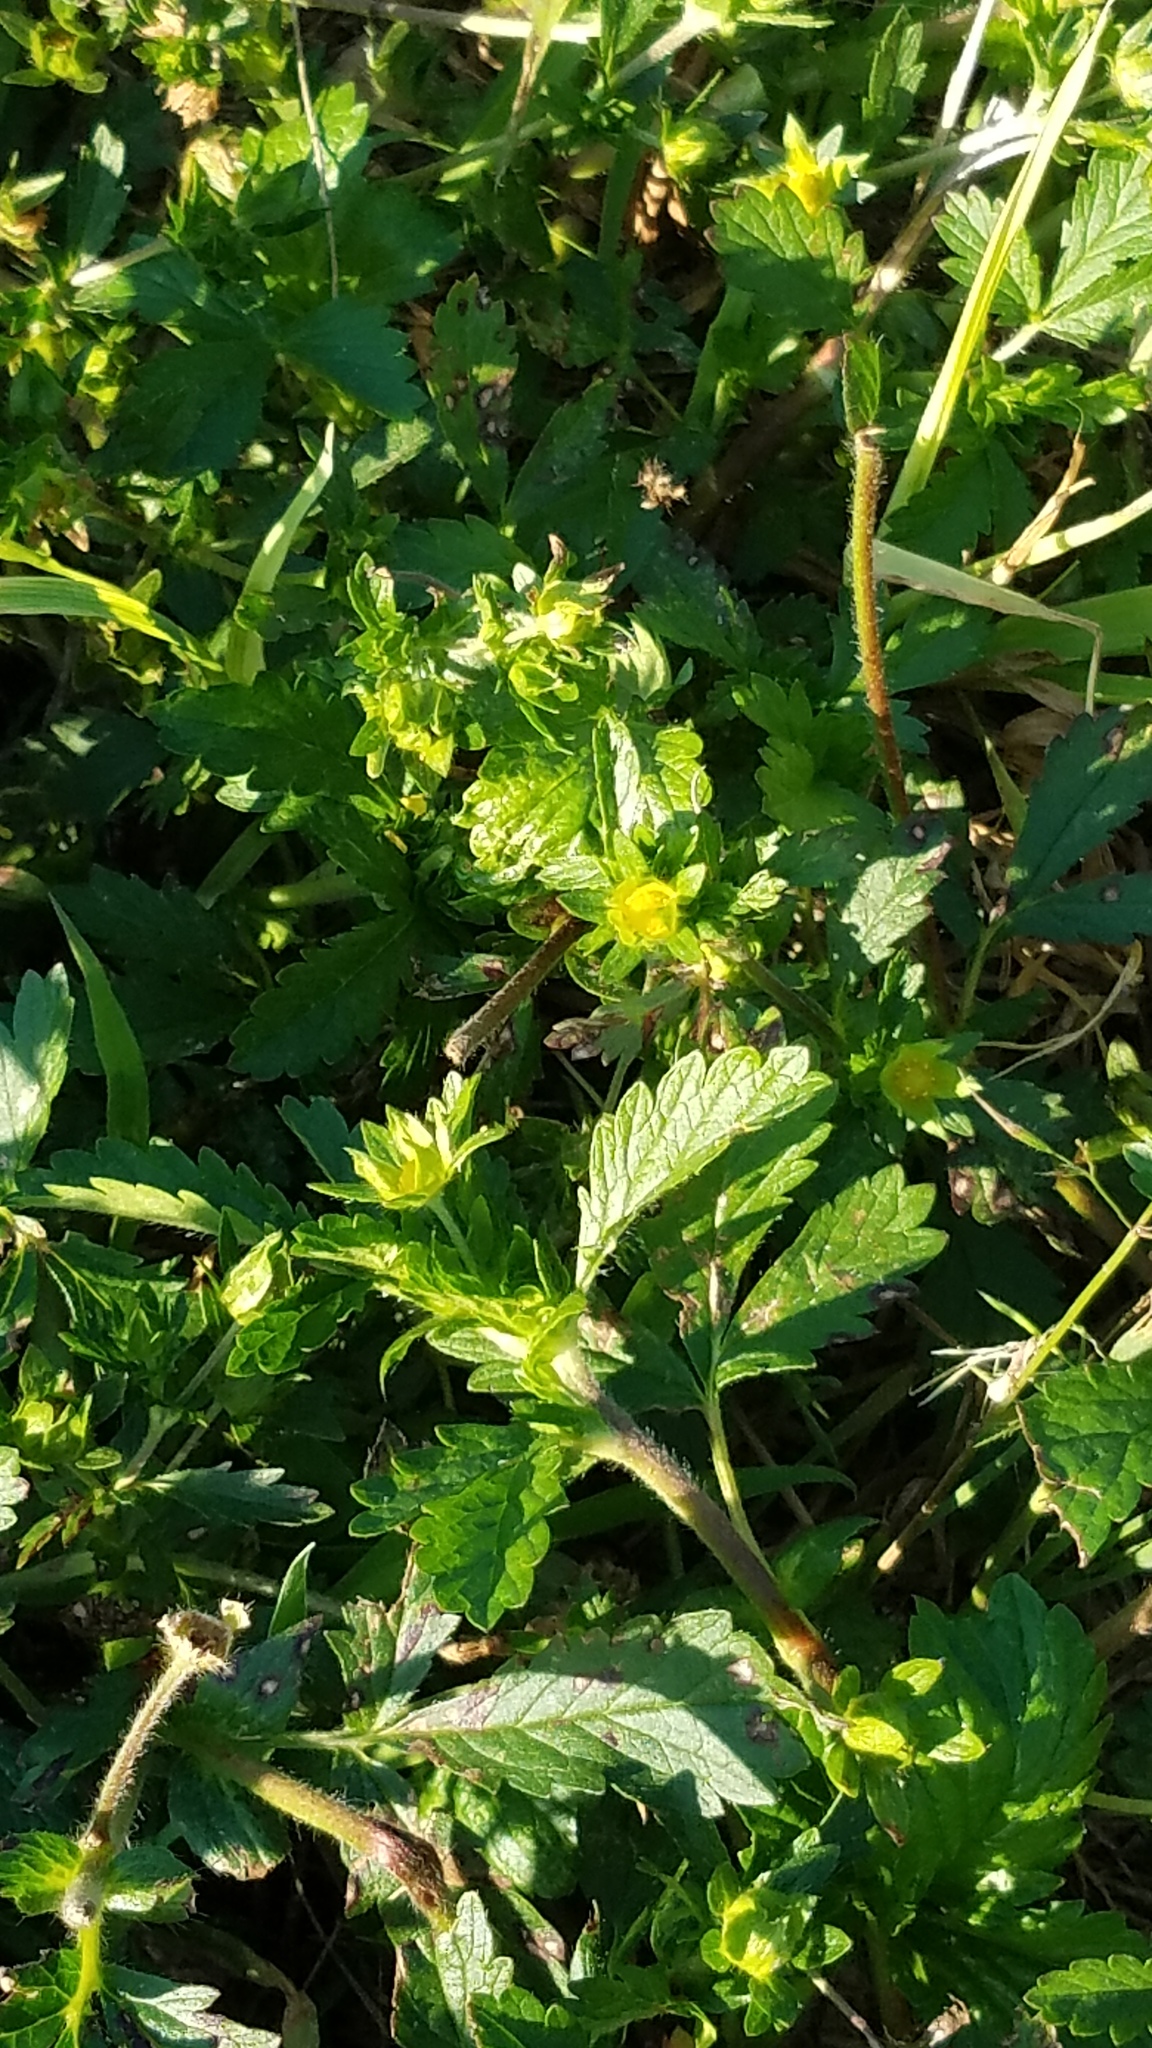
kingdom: Plantae
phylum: Tracheophyta
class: Magnoliopsida
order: Rosales
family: Rosaceae
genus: Potentilla
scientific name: Potentilla norvegica
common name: Ternate-leaved cinquefoil
